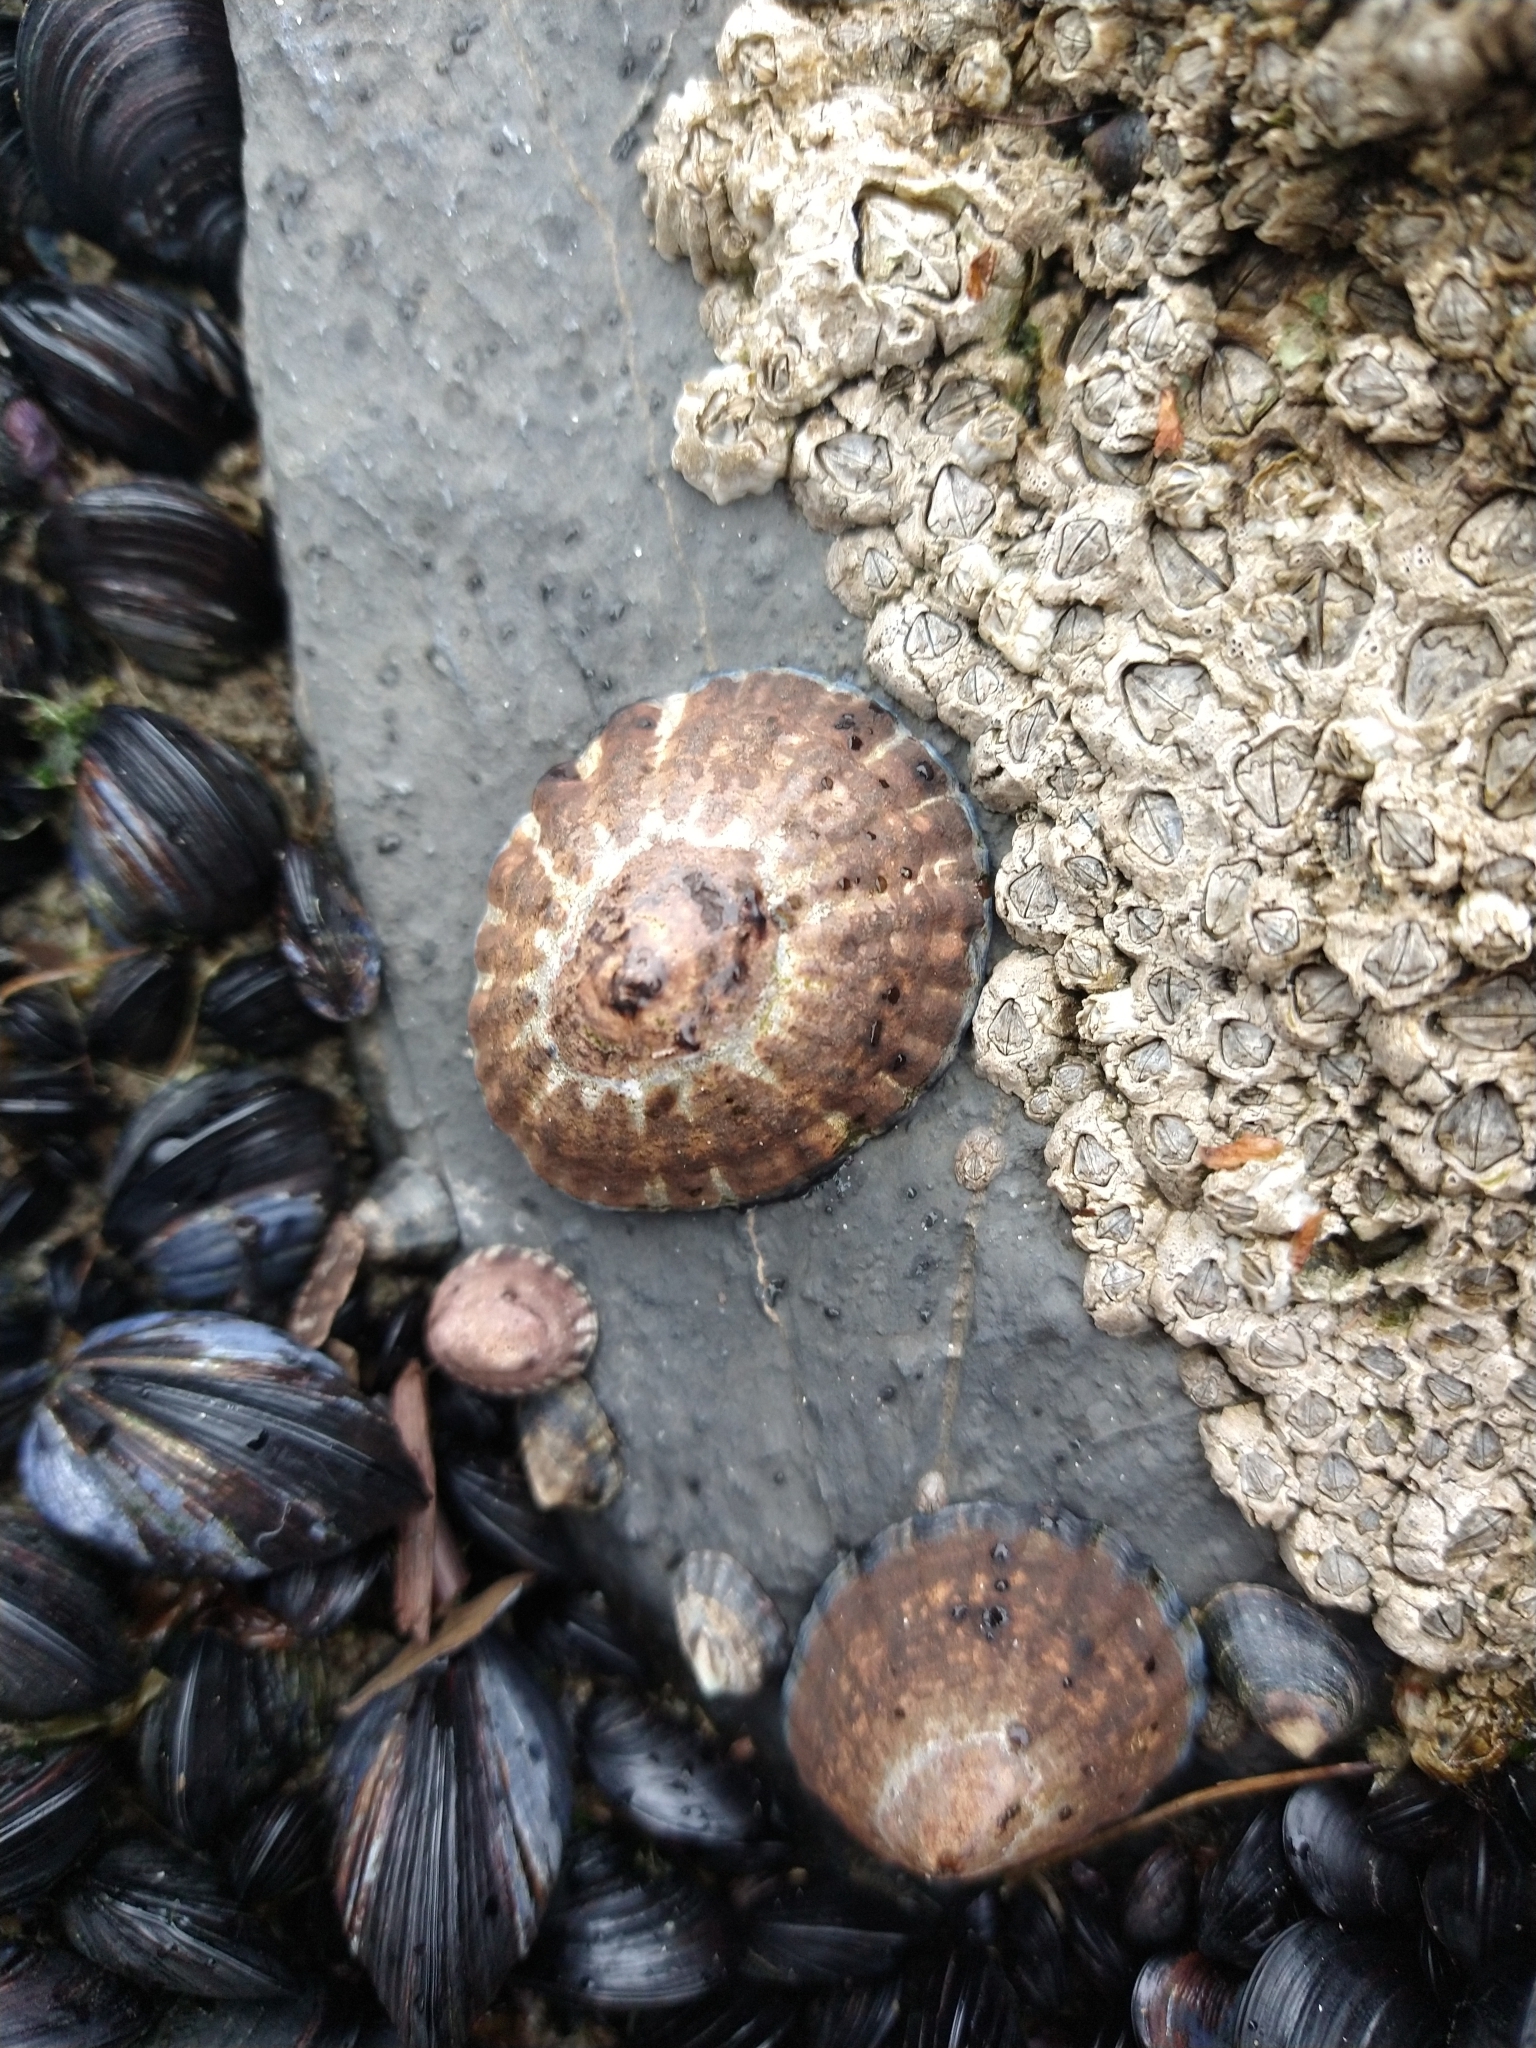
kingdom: Animalia
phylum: Mollusca
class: Gastropoda
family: Nacellidae
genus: Nacella
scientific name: Nacella magellanica
